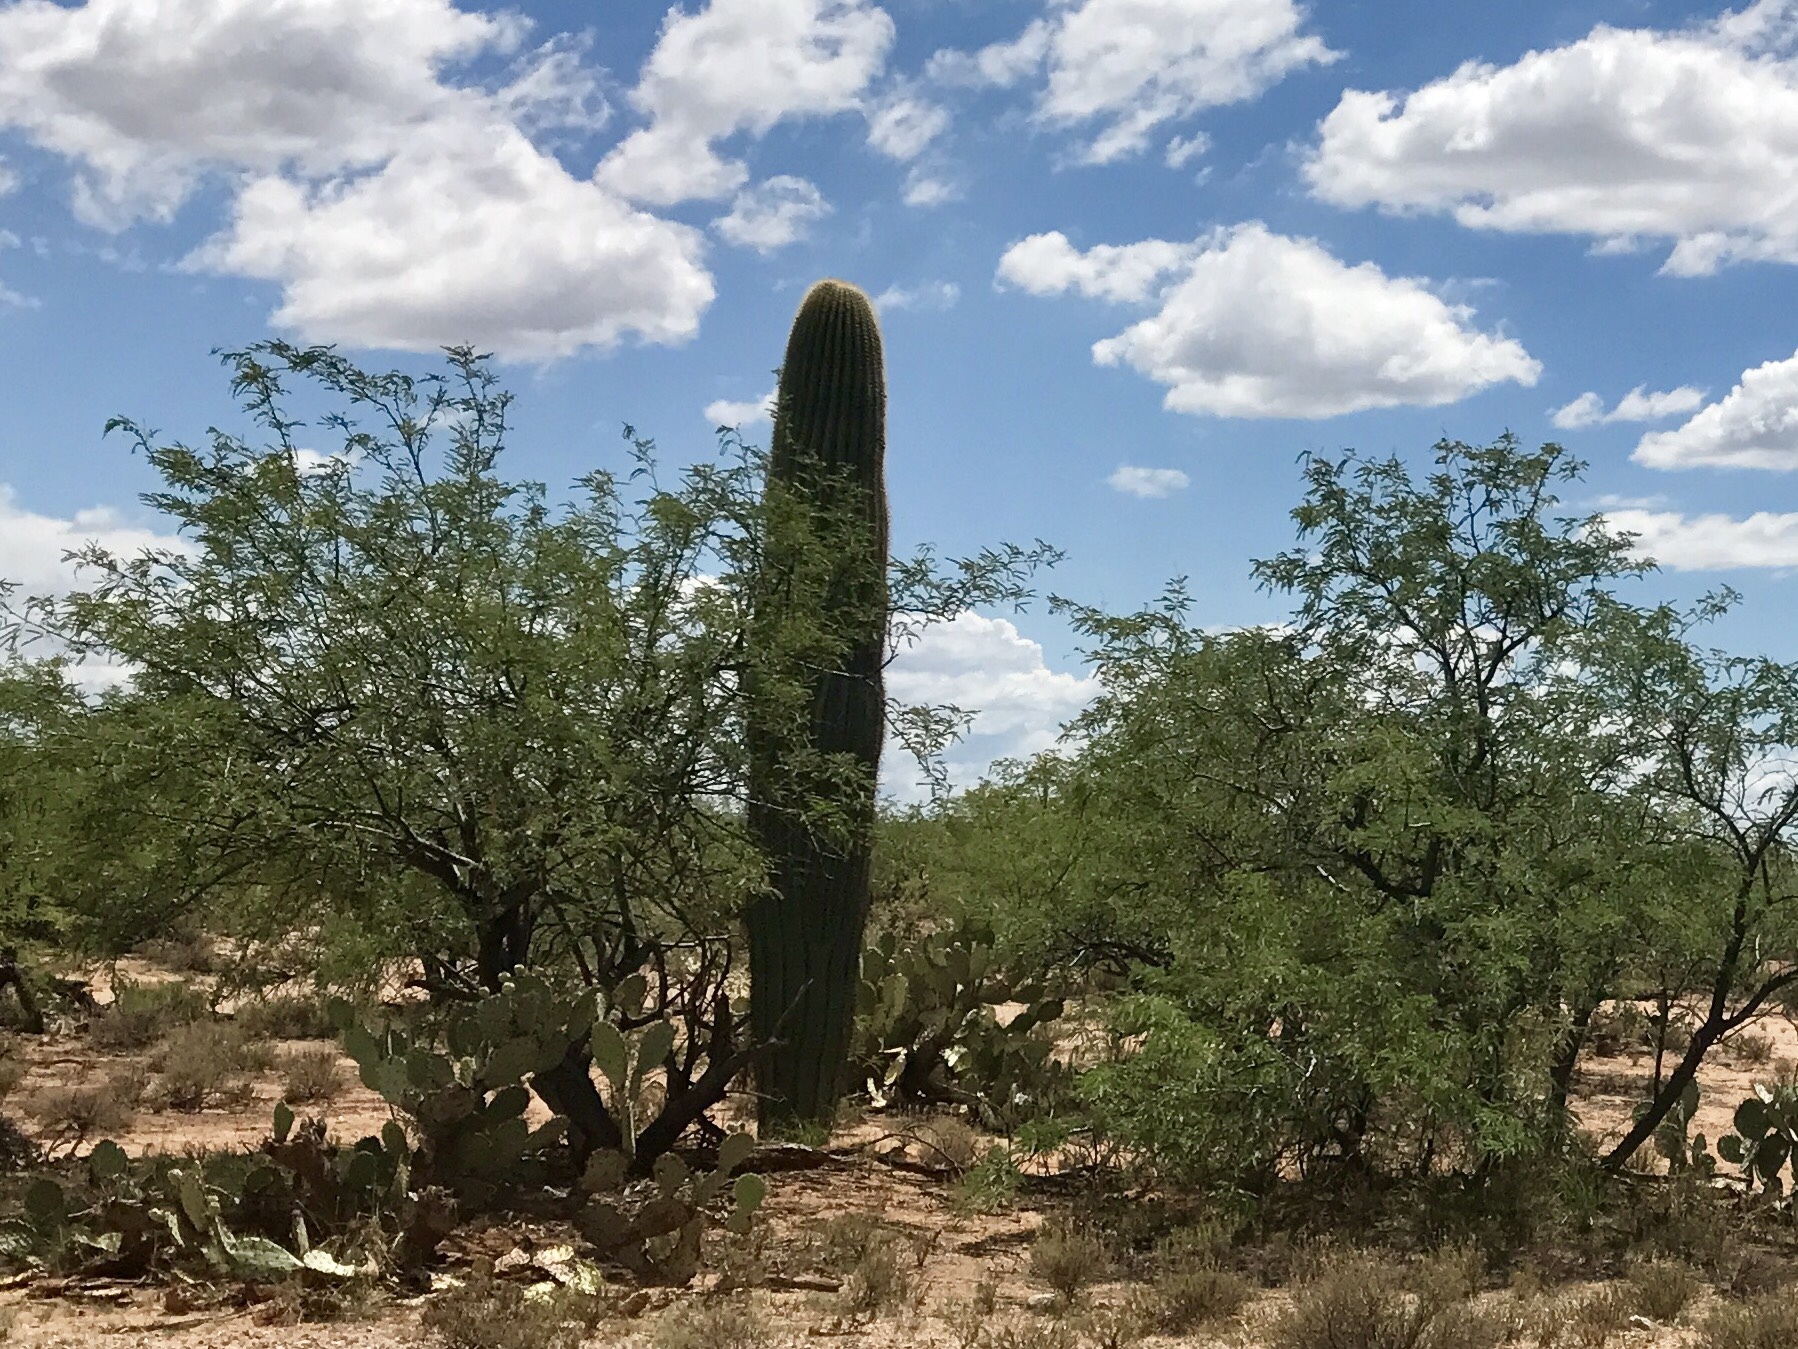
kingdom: Plantae
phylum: Tracheophyta
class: Magnoliopsida
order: Caryophyllales
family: Cactaceae
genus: Carnegiea
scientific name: Carnegiea gigantea
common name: Saguaro
